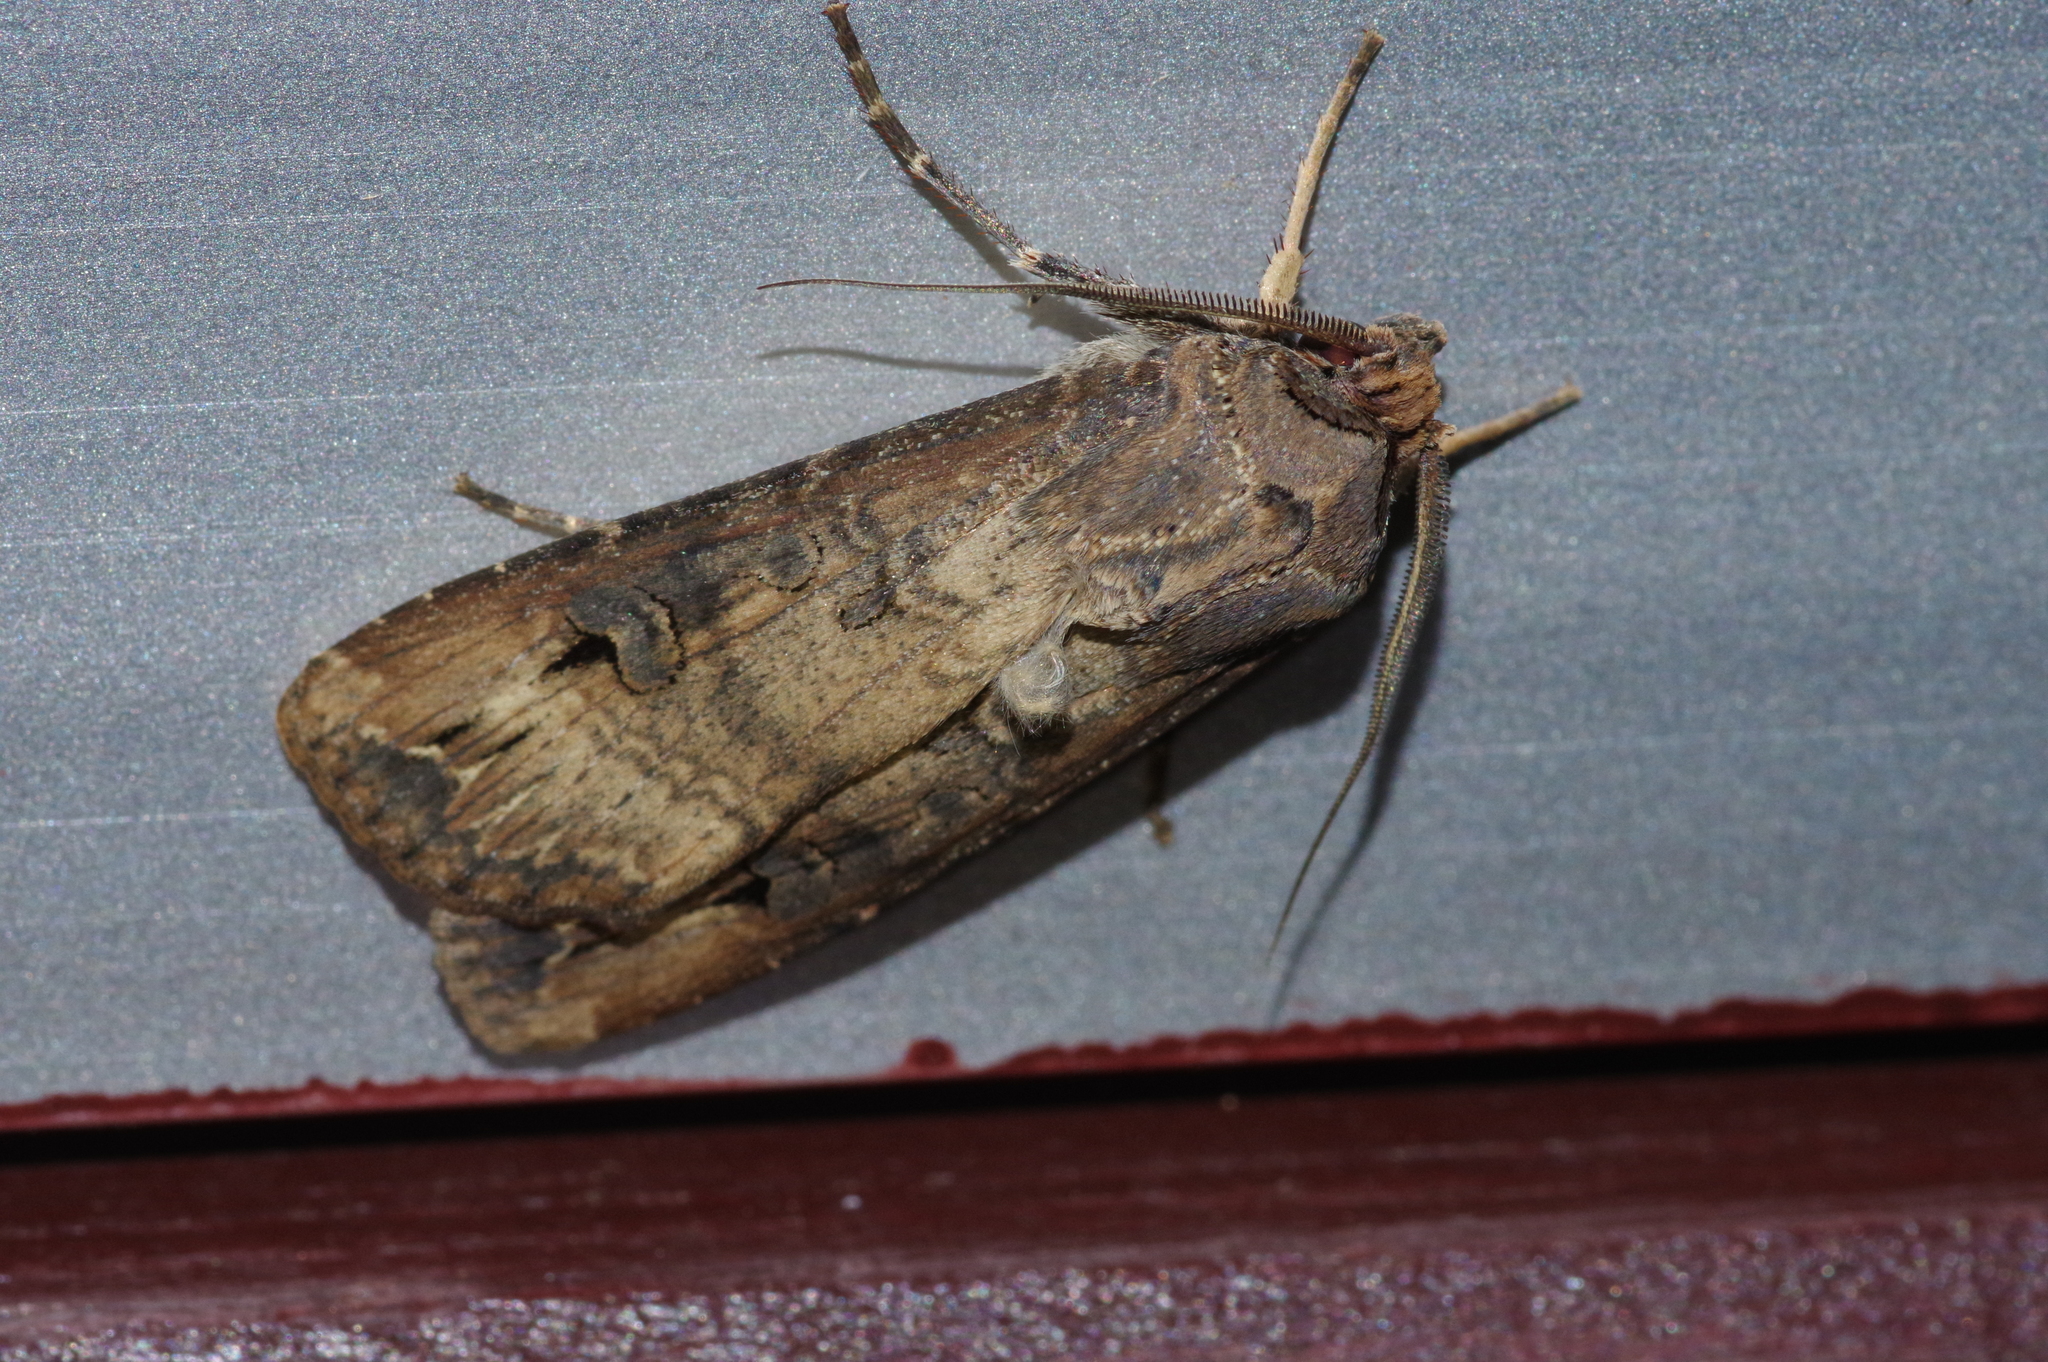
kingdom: Animalia
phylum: Arthropoda
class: Insecta
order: Lepidoptera
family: Noctuidae
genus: Agrotis
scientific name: Agrotis ipsilon
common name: Dark sword-grass
